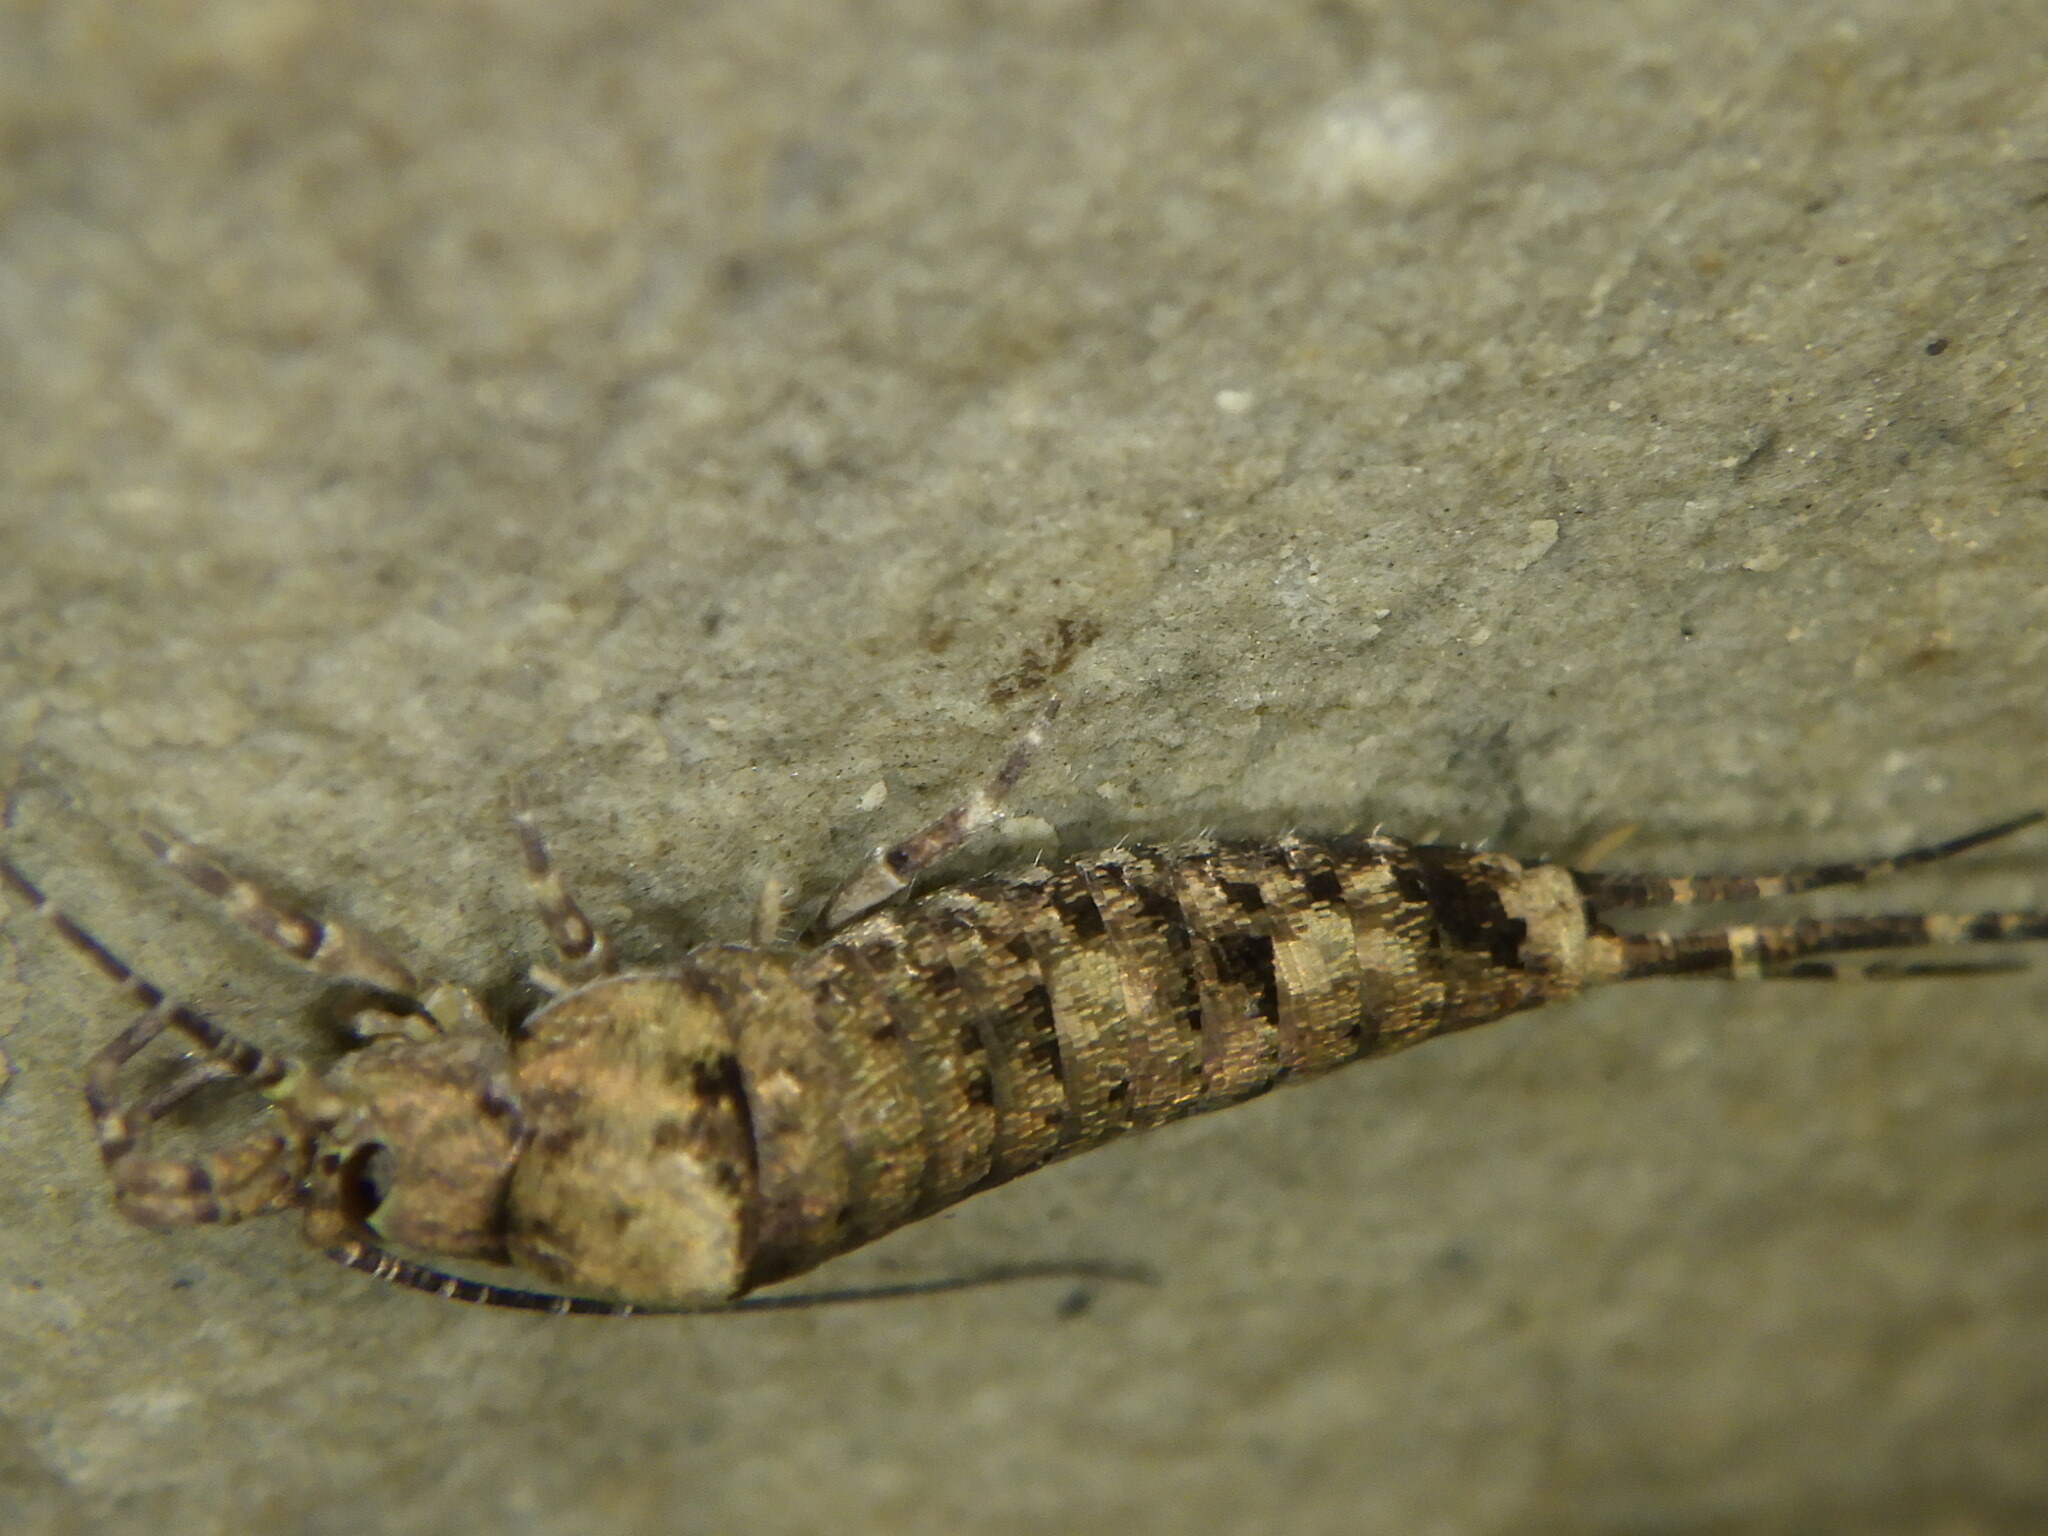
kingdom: Animalia
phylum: Arthropoda
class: Insecta
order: Archaeognatha
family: Machilidae
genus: Trigoniophthalmus
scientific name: Trigoniophthalmus alternatus
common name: Jumping bristletail
